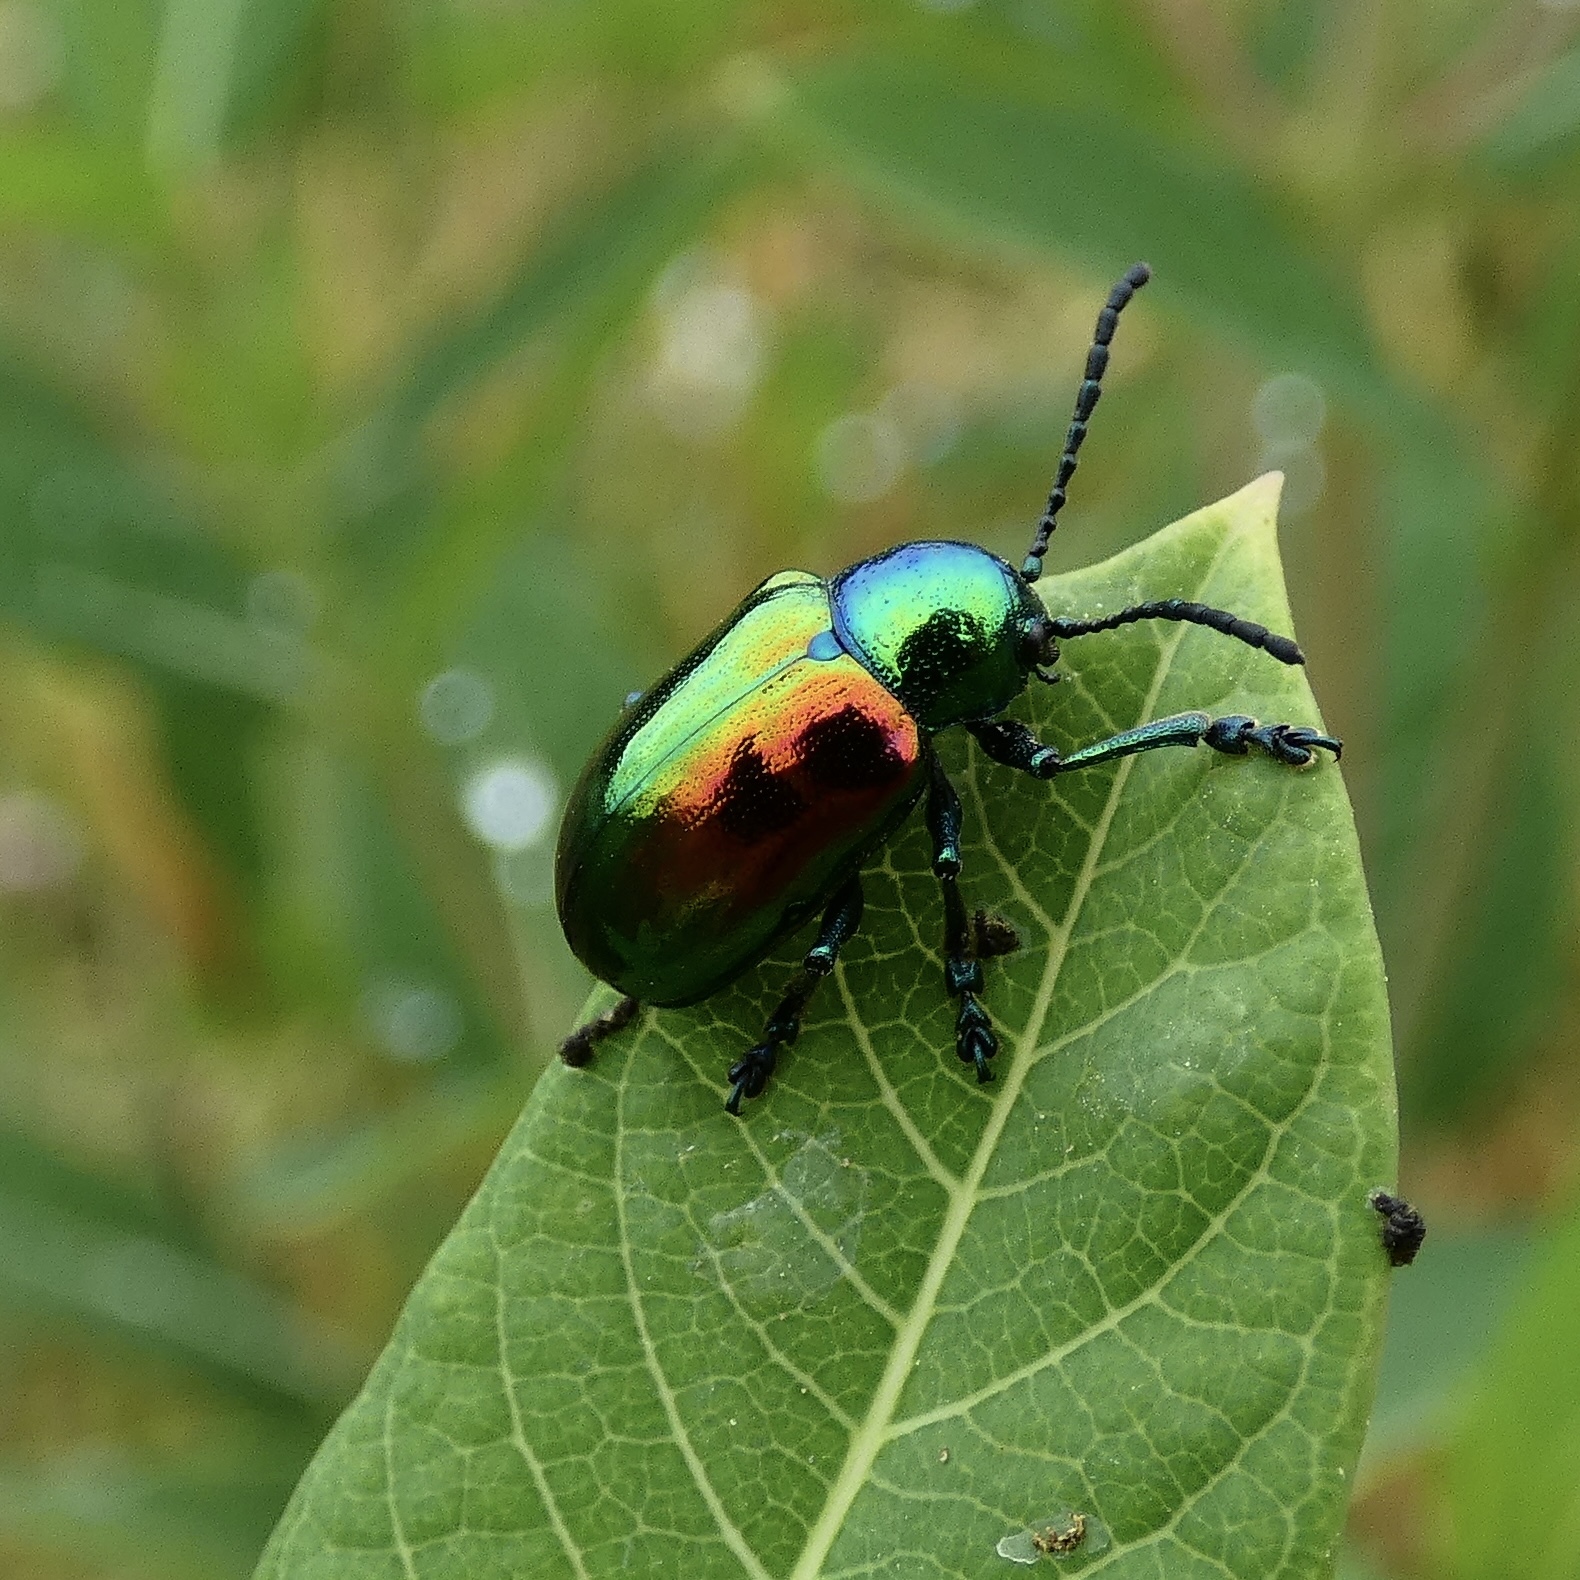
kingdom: Animalia
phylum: Arthropoda
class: Insecta
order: Coleoptera
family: Chrysomelidae
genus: Chrysochus
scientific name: Chrysochus auratus
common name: Dogbane leaf beetle
